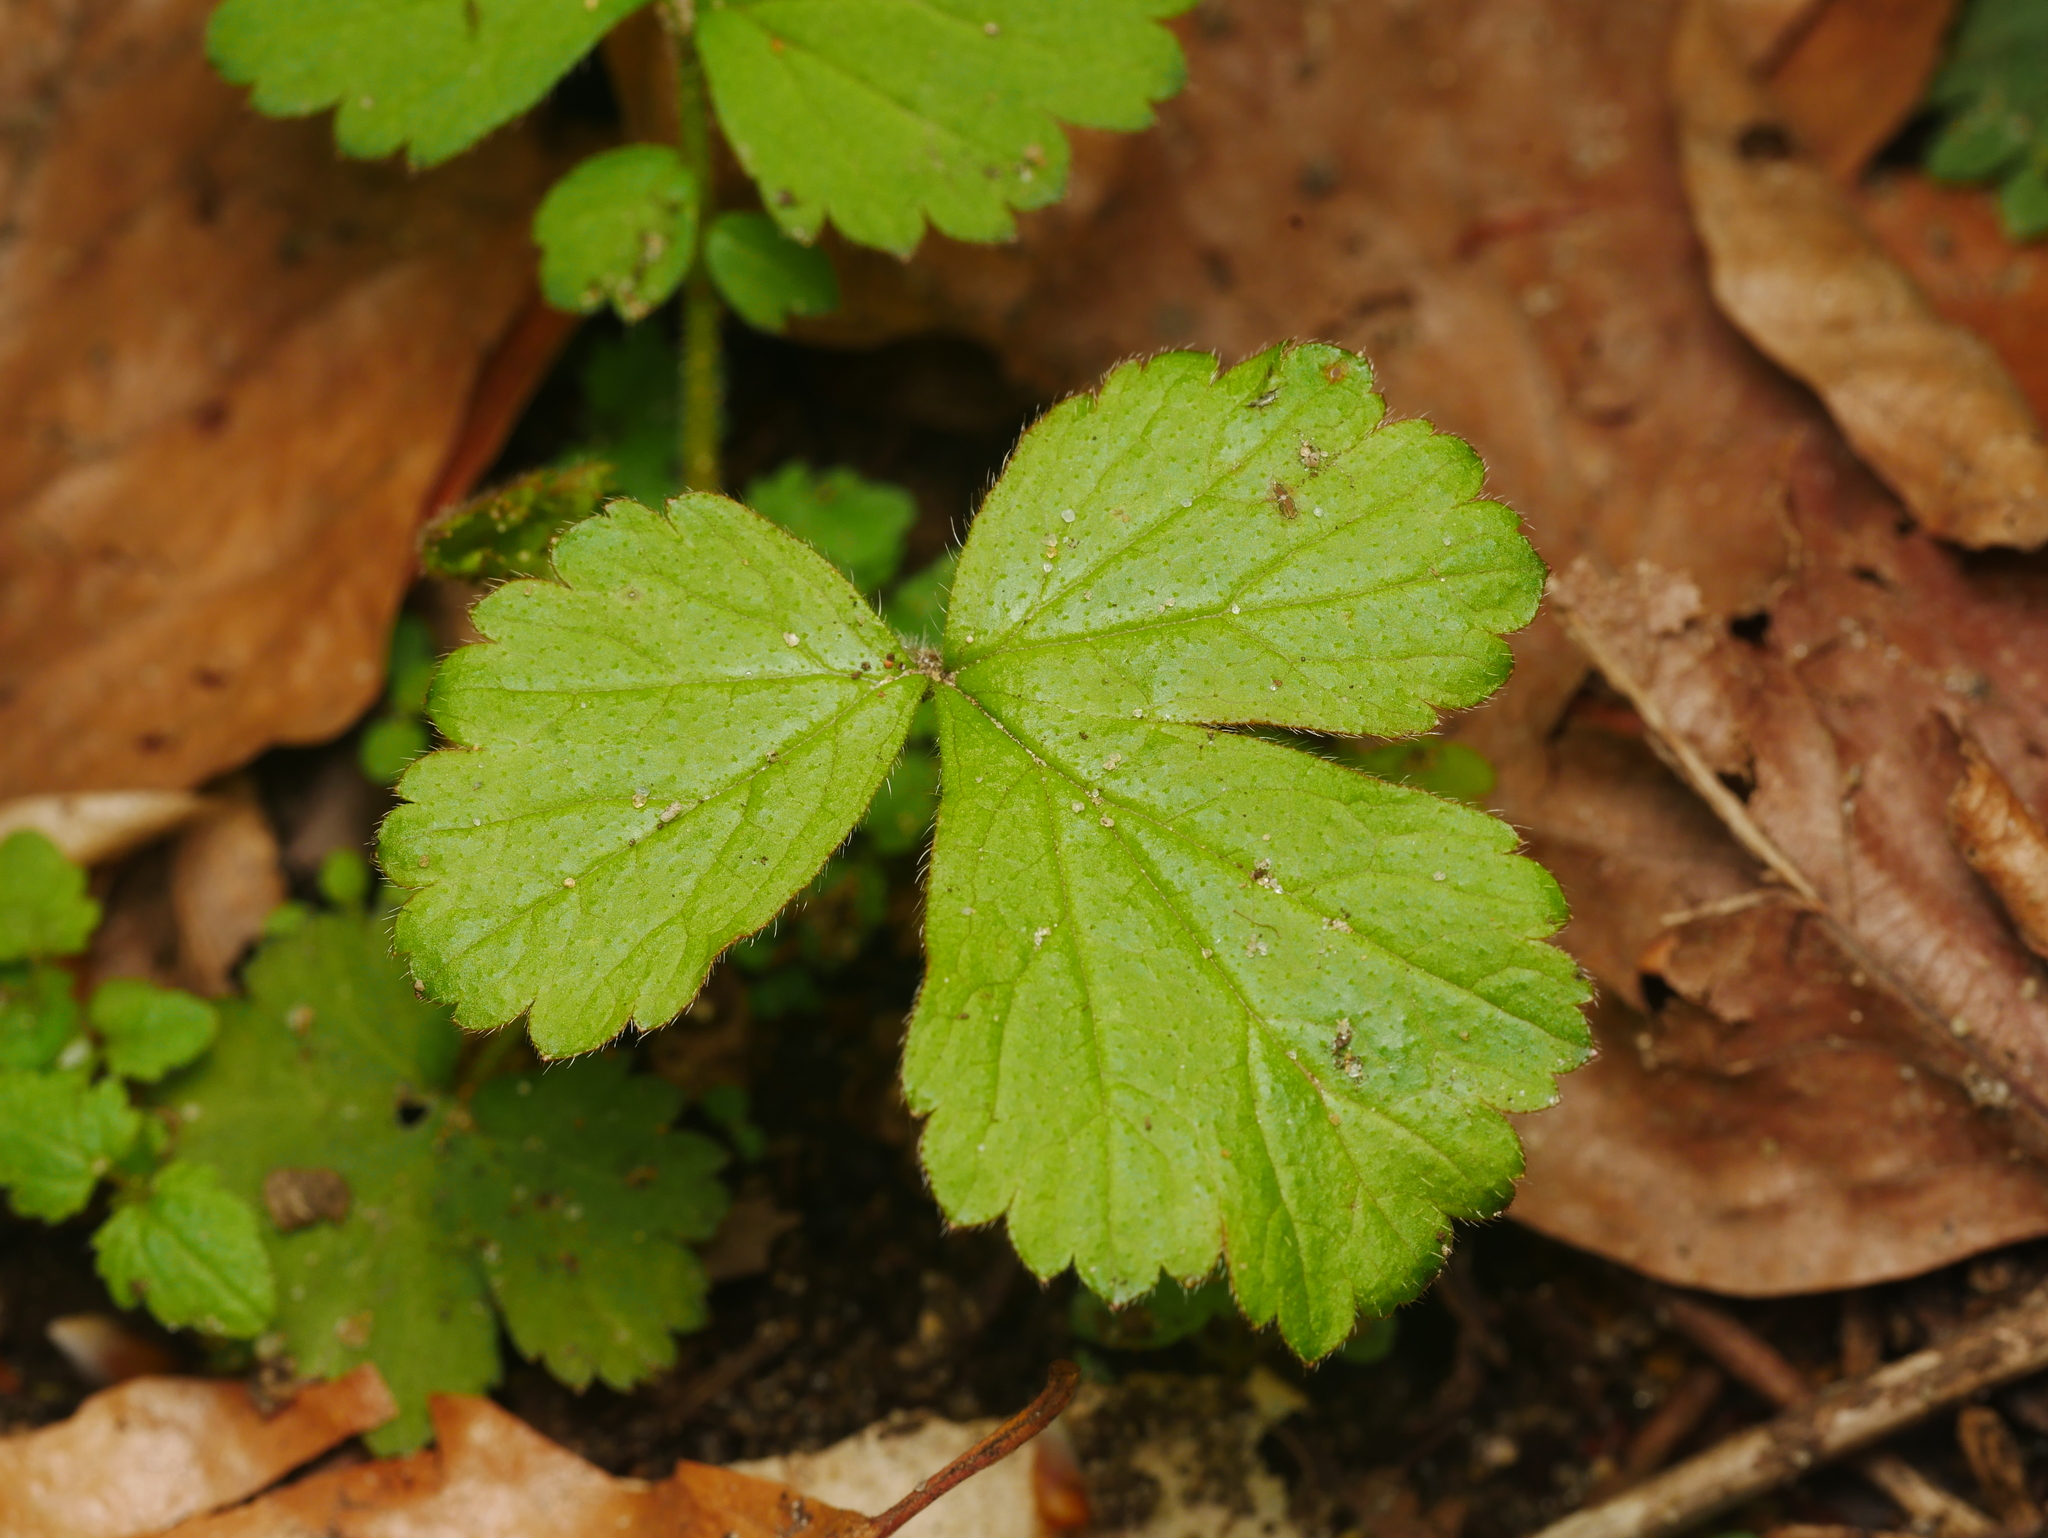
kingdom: Plantae
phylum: Tracheophyta
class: Magnoliopsida
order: Rosales
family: Rosaceae
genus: Geum
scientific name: Geum urbanum
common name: Wood avens
